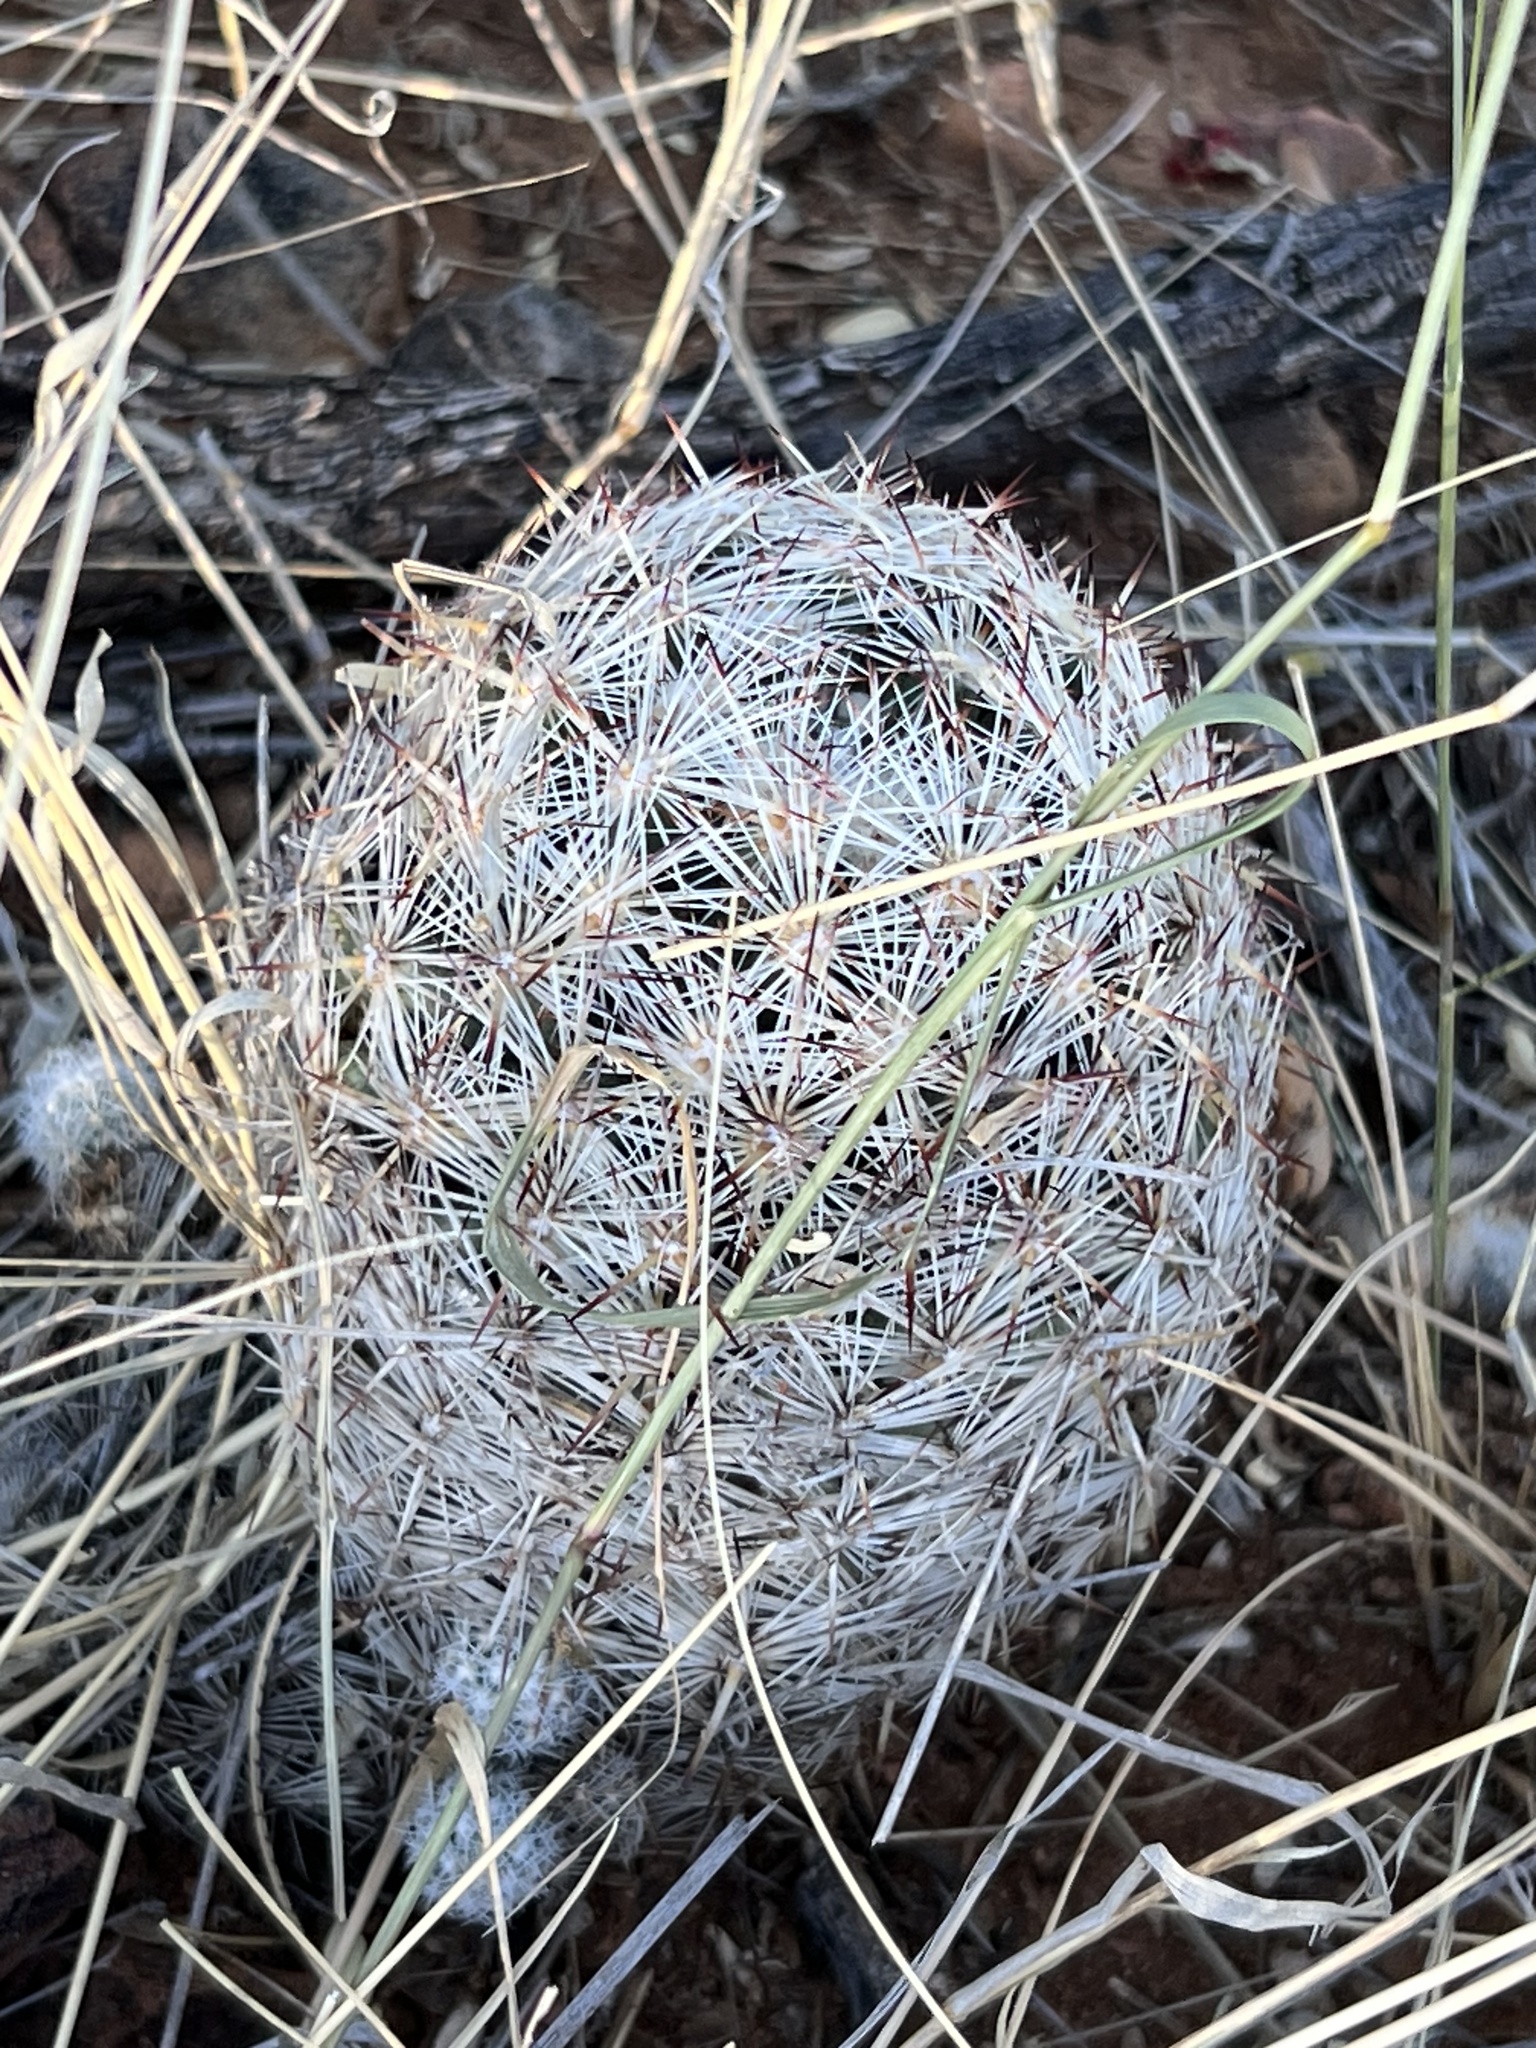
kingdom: Plantae
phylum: Tracheophyta
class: Magnoliopsida
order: Caryophyllales
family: Cactaceae
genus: Pelecyphora
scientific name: Pelecyphora vivipara
